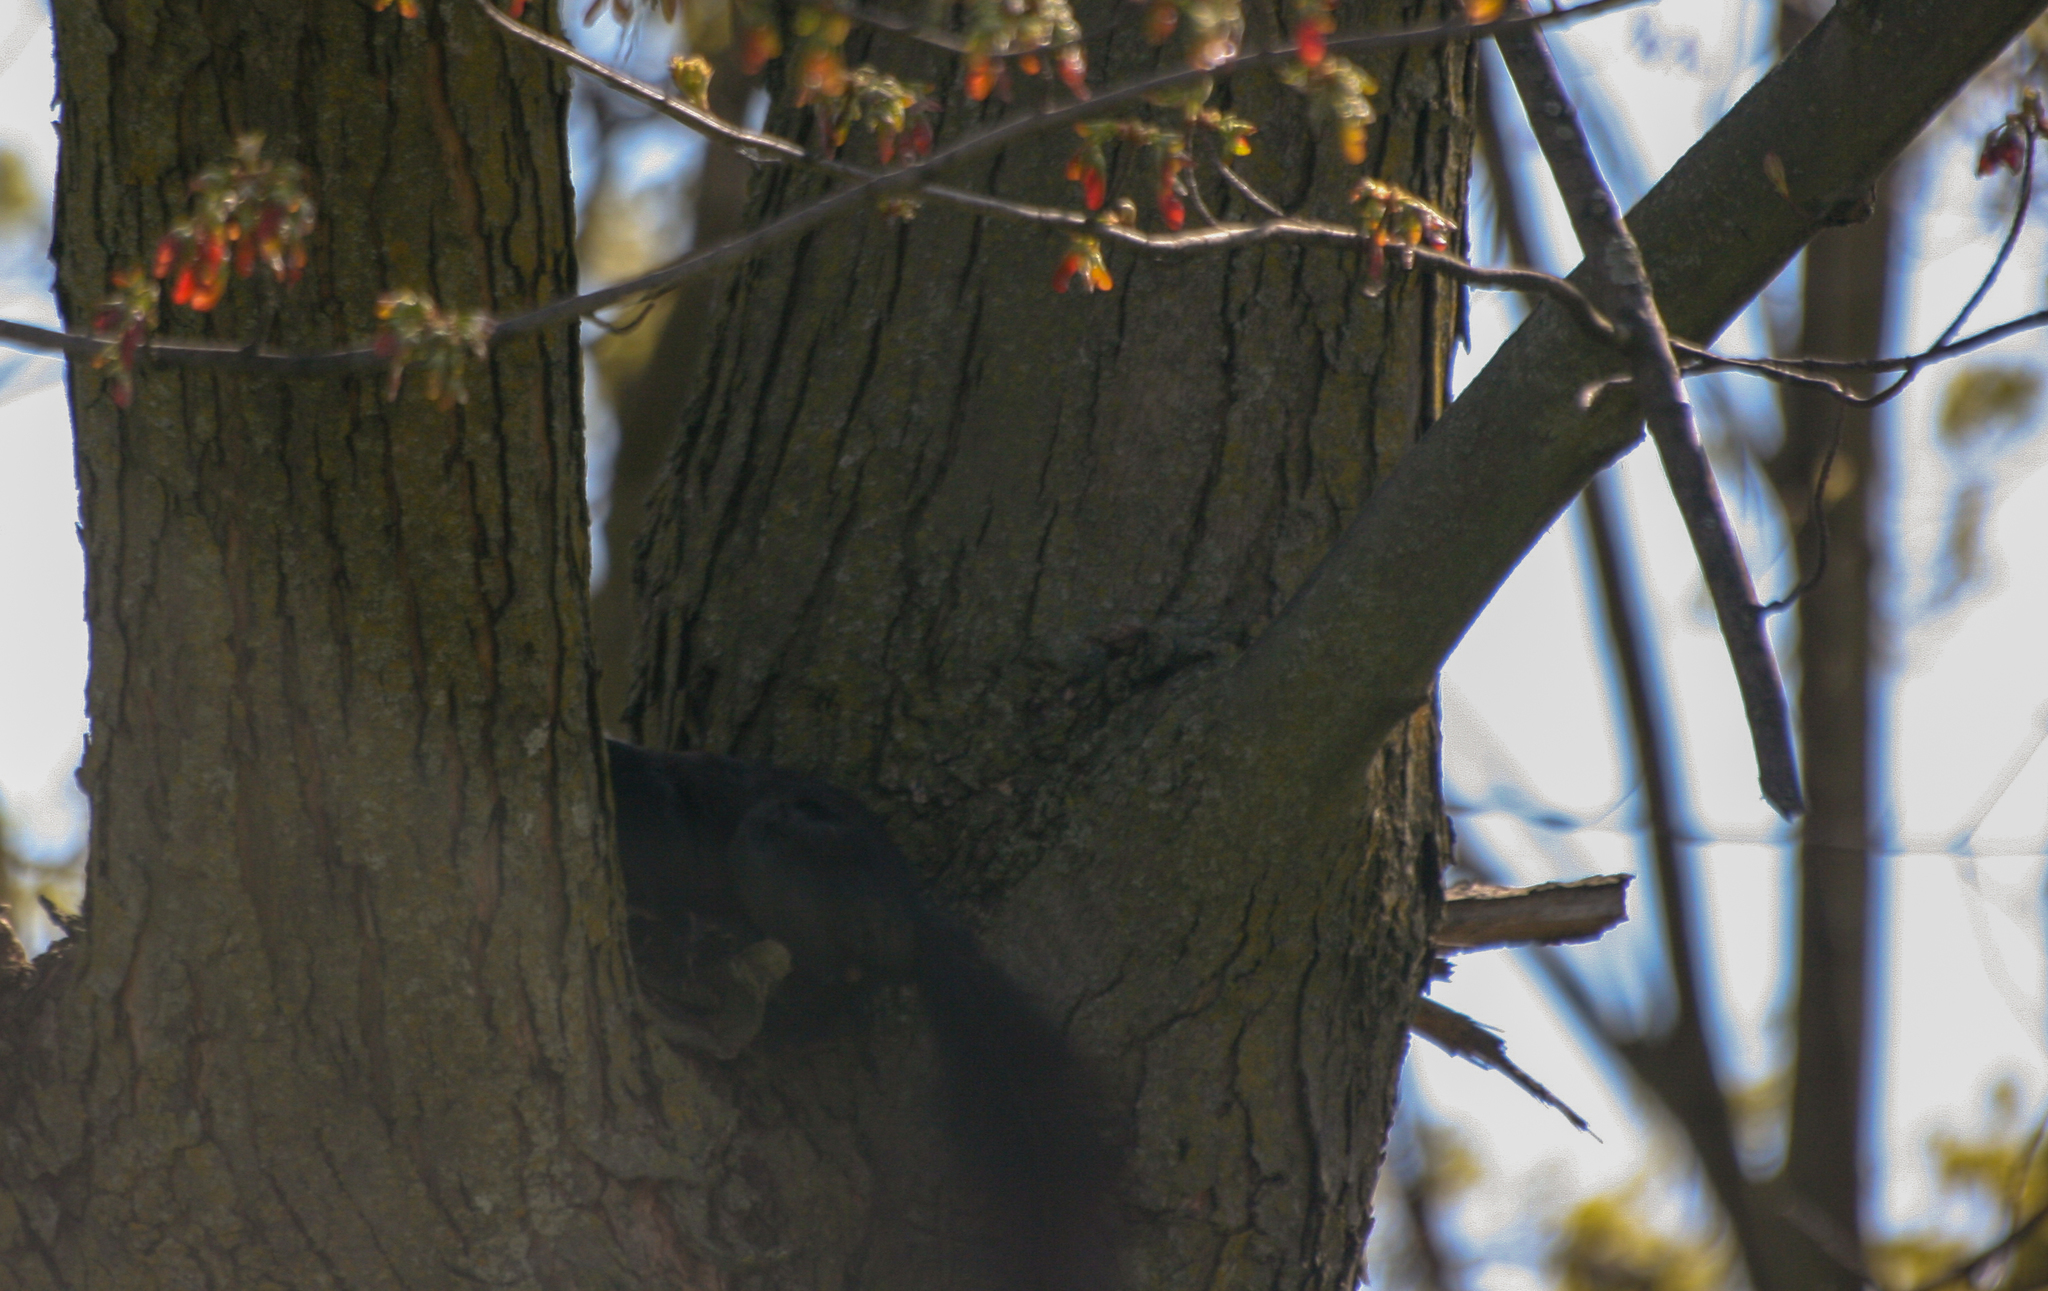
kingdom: Animalia
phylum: Chordata
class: Mammalia
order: Rodentia
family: Sciuridae
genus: Sciurus
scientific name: Sciurus carolinensis
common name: Eastern gray squirrel
